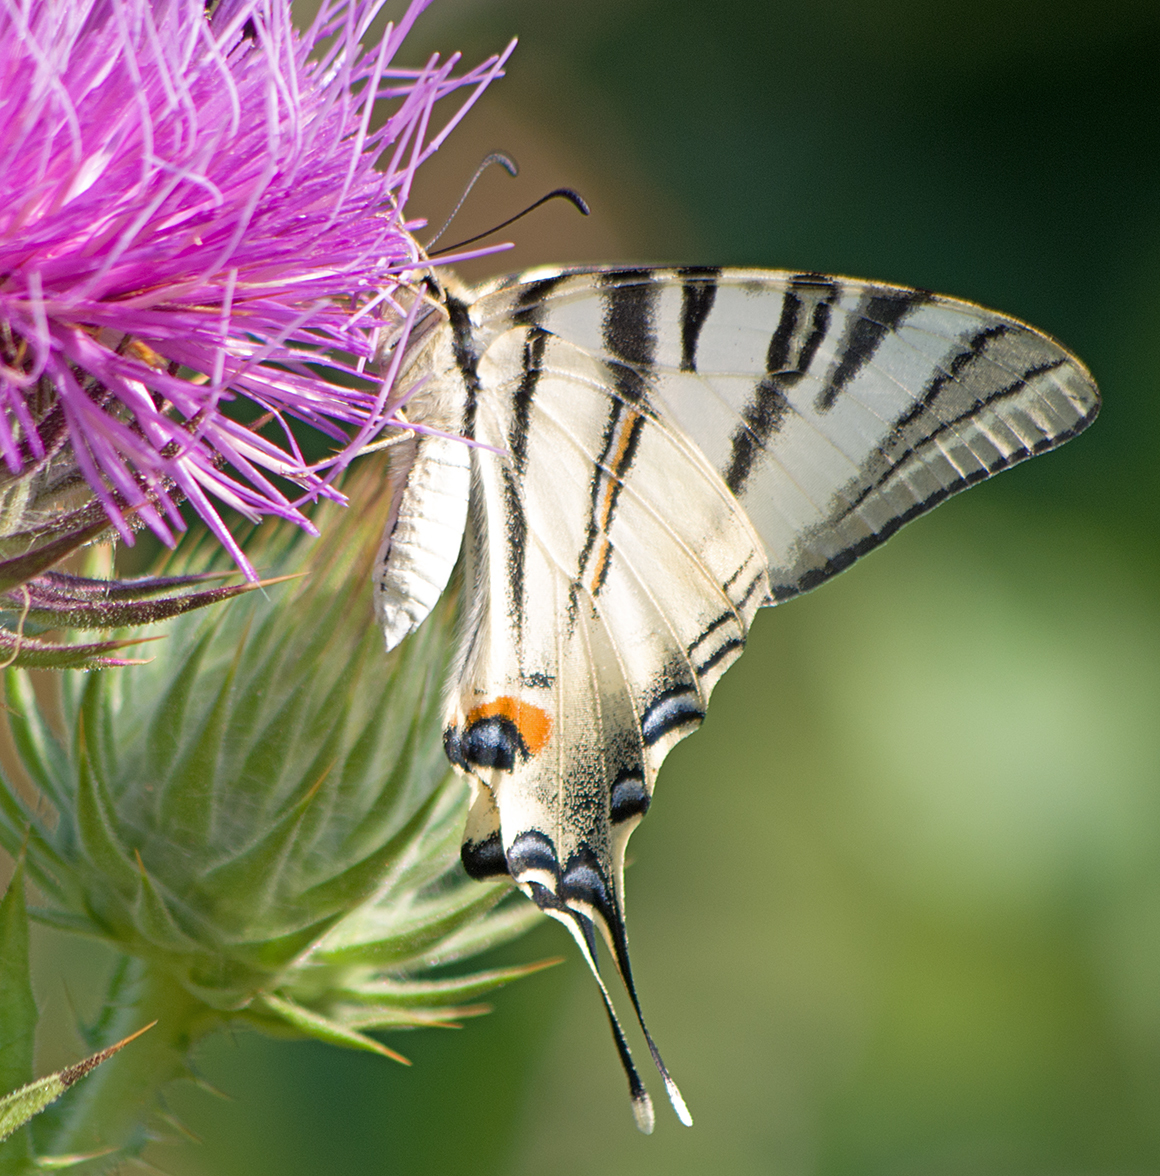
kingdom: Animalia
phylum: Arthropoda
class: Insecta
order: Lepidoptera
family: Papilionidae
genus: Iphiclides
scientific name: Iphiclides podalirius
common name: Scarce swallowtail
